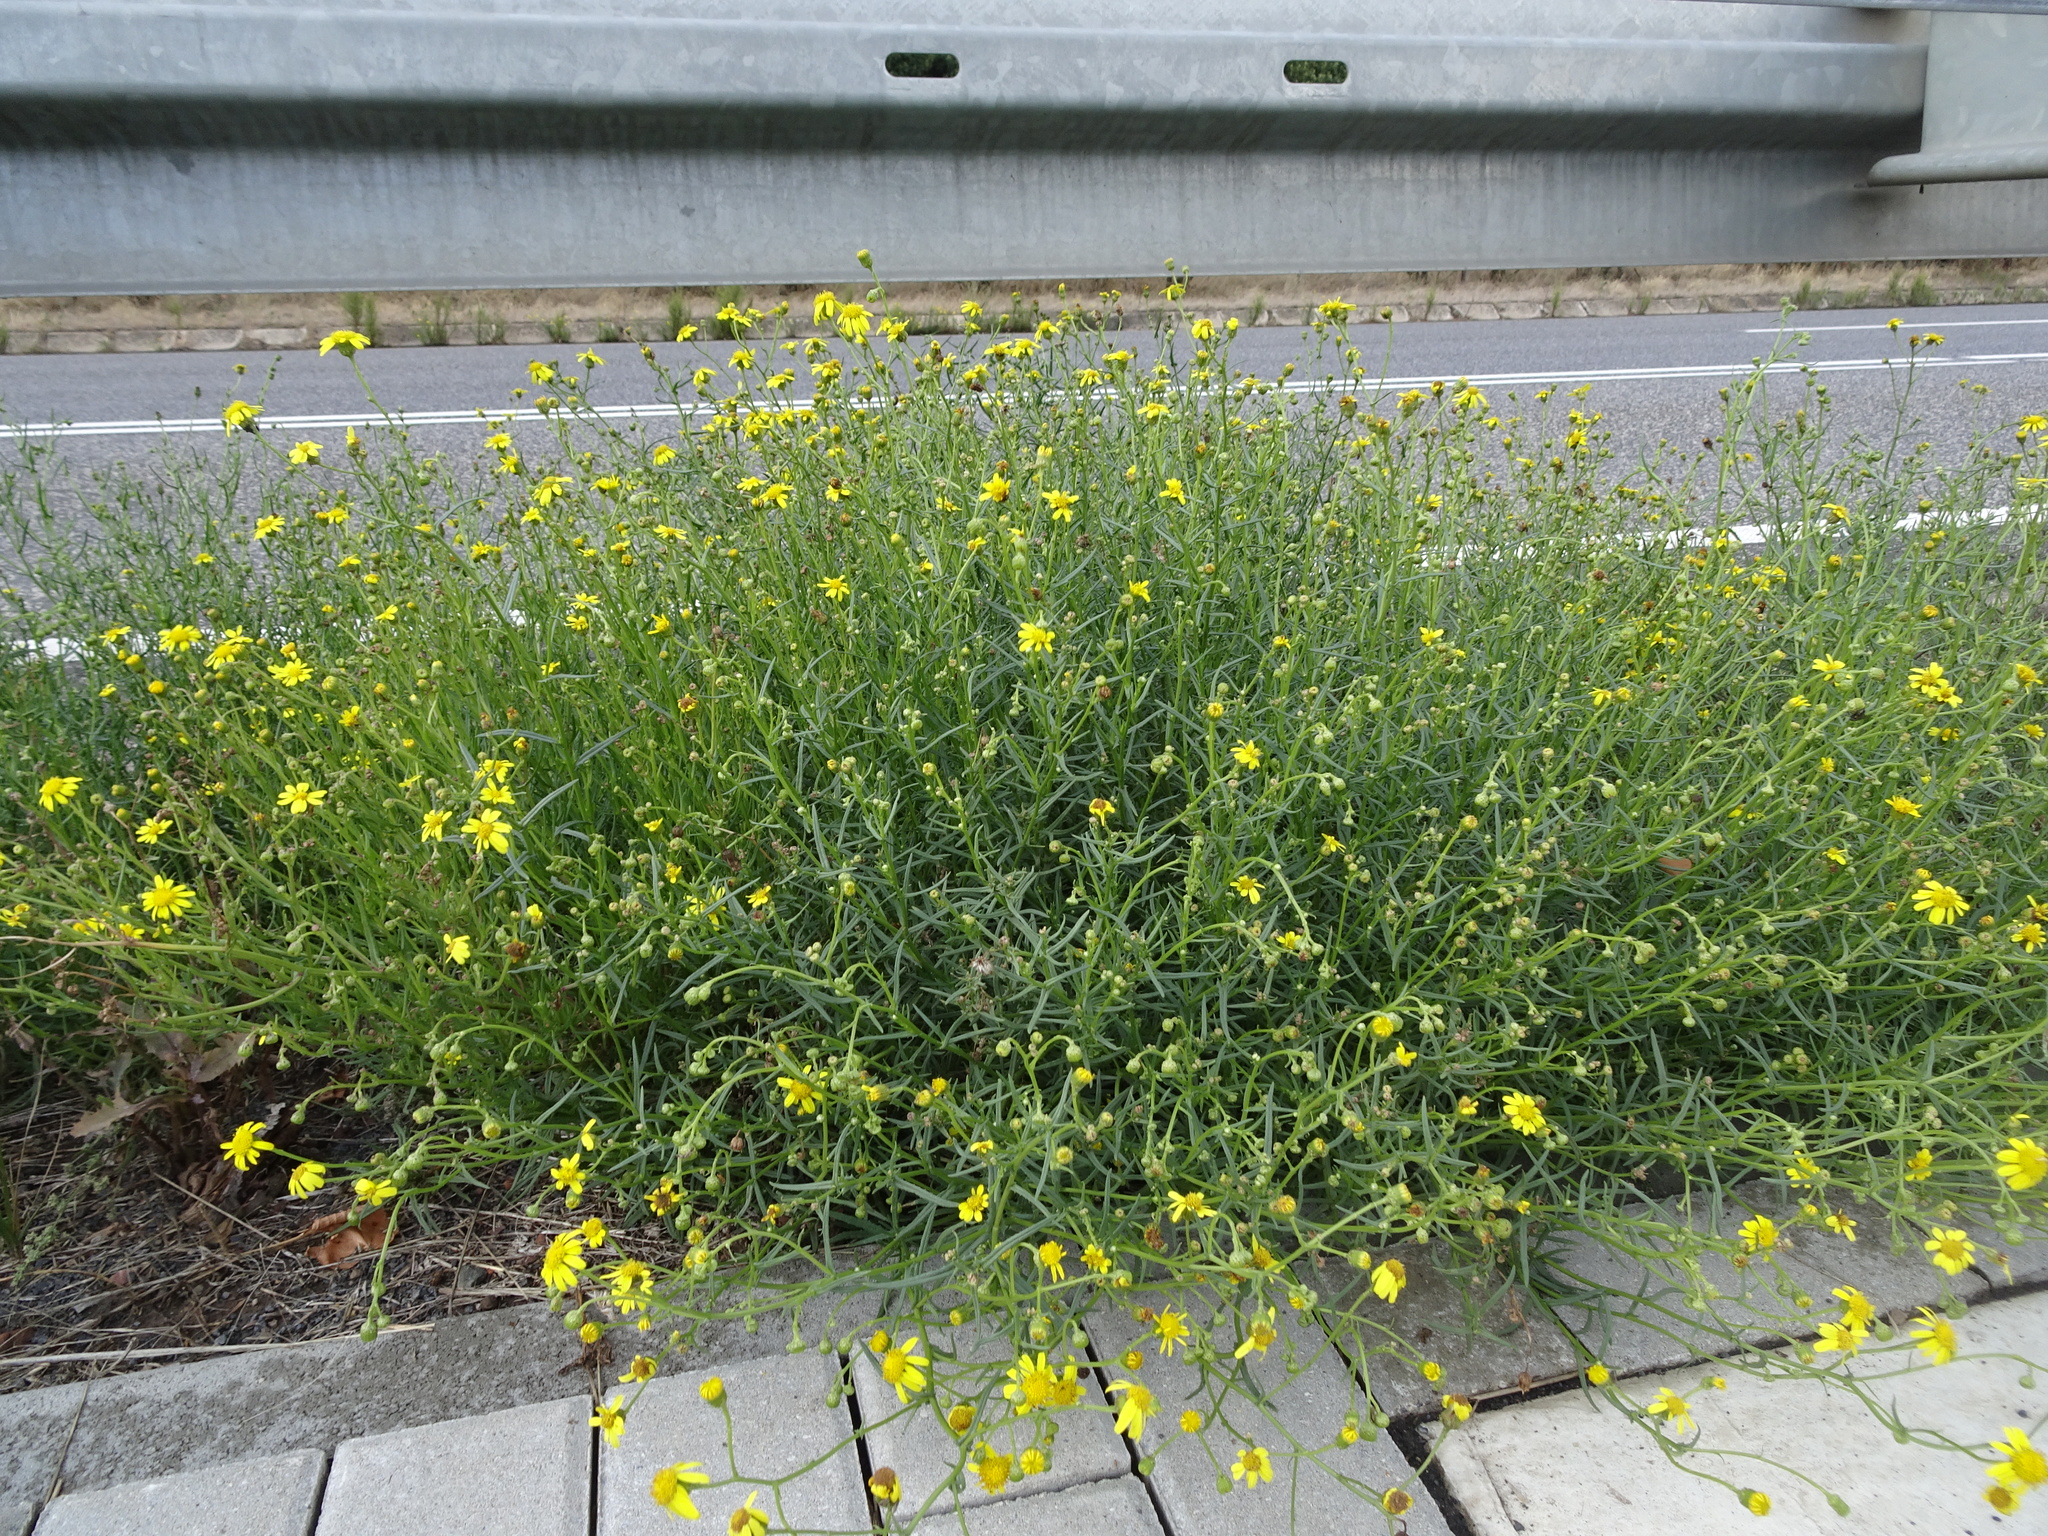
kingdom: Plantae
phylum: Tracheophyta
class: Magnoliopsida
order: Asterales
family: Asteraceae
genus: Senecio
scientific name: Senecio inaequidens
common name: Narrow-leaved ragwort
